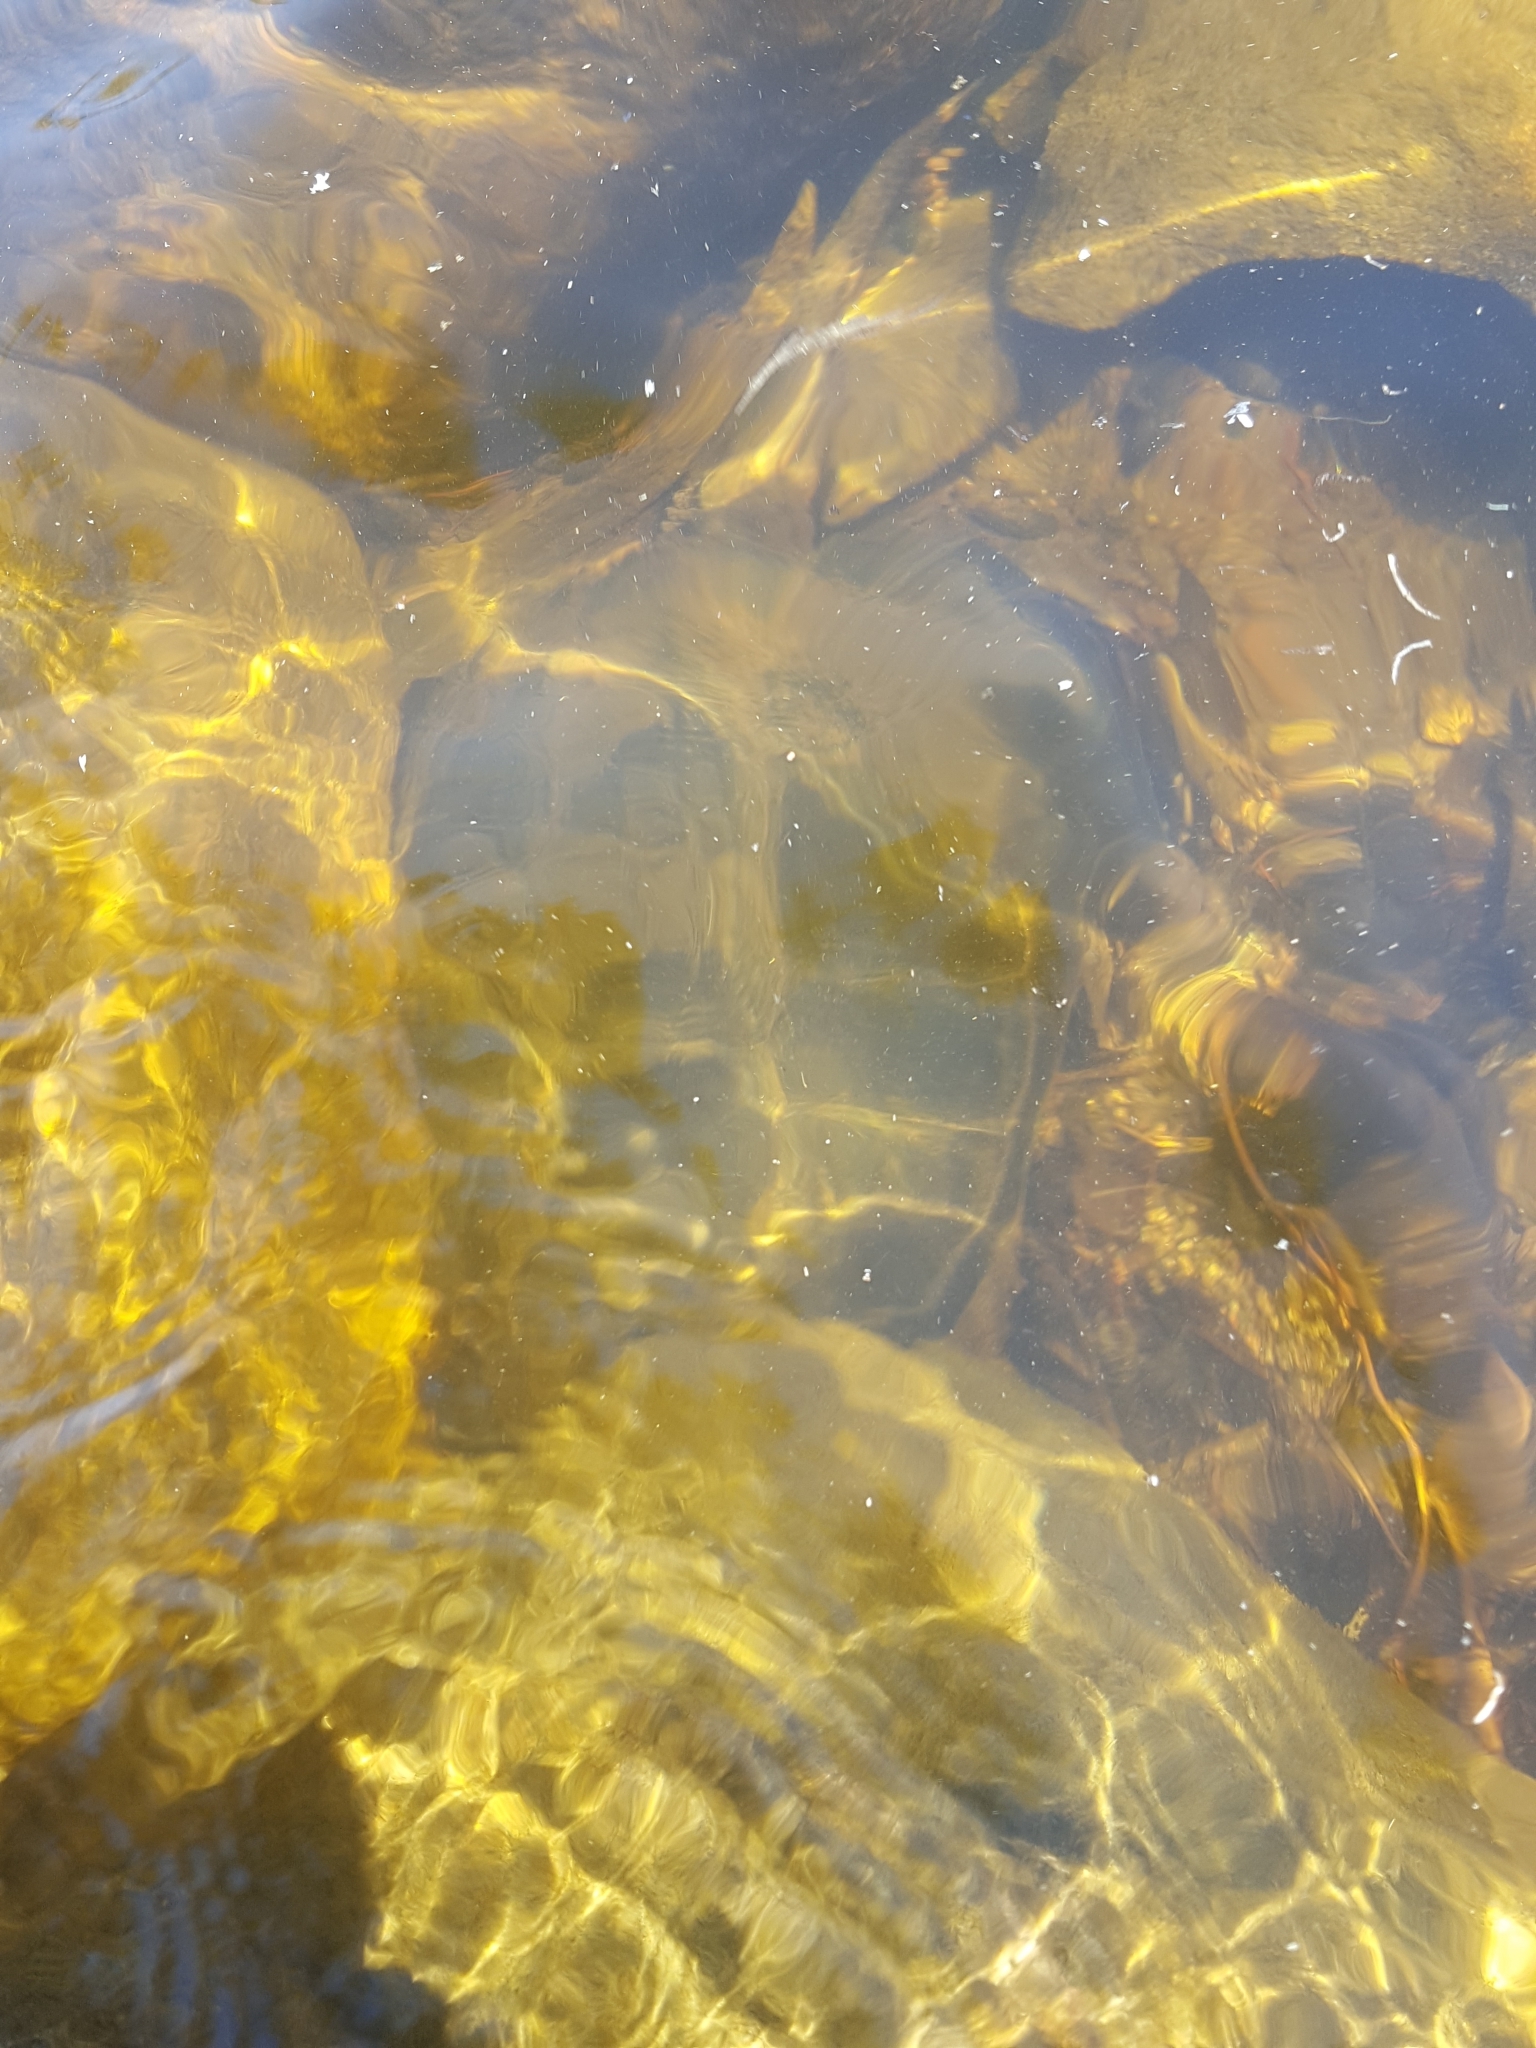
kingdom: Animalia
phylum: Chordata
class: Testudines
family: Chelydridae
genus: Chelydra
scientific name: Chelydra serpentina
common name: Common snapping turtle
